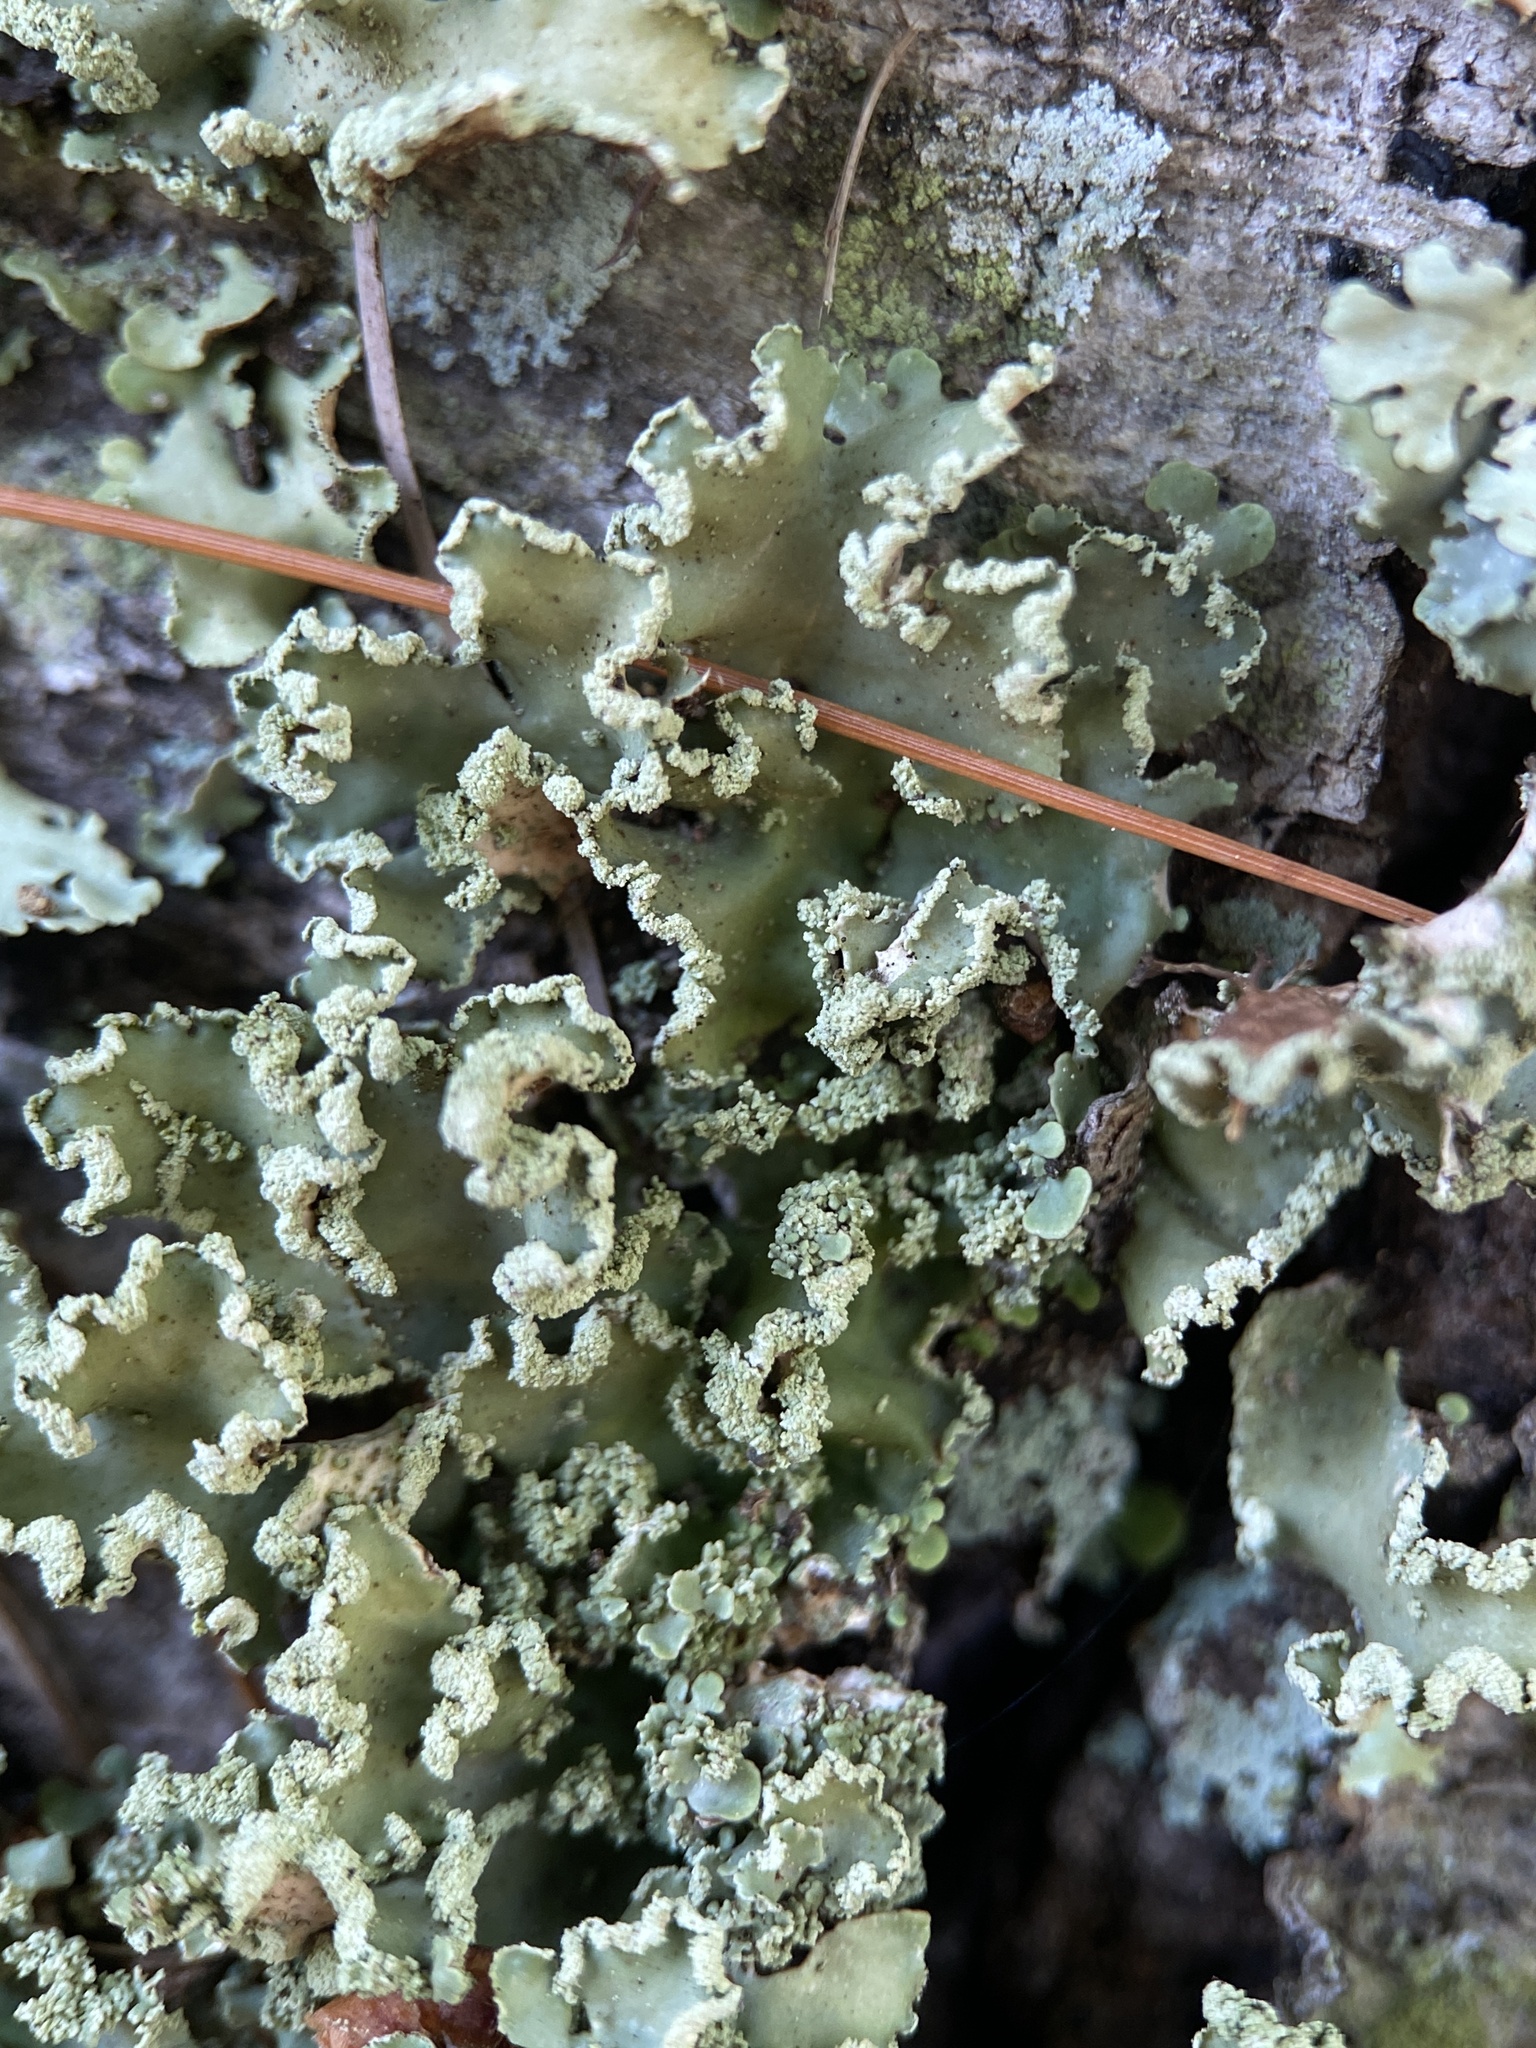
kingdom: Fungi
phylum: Ascomycota
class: Lecanoromycetes
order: Lecanorales
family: Parmeliaceae
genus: Usnocetraria
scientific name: Usnocetraria oakesiana
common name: Yellow ribbon lichen
